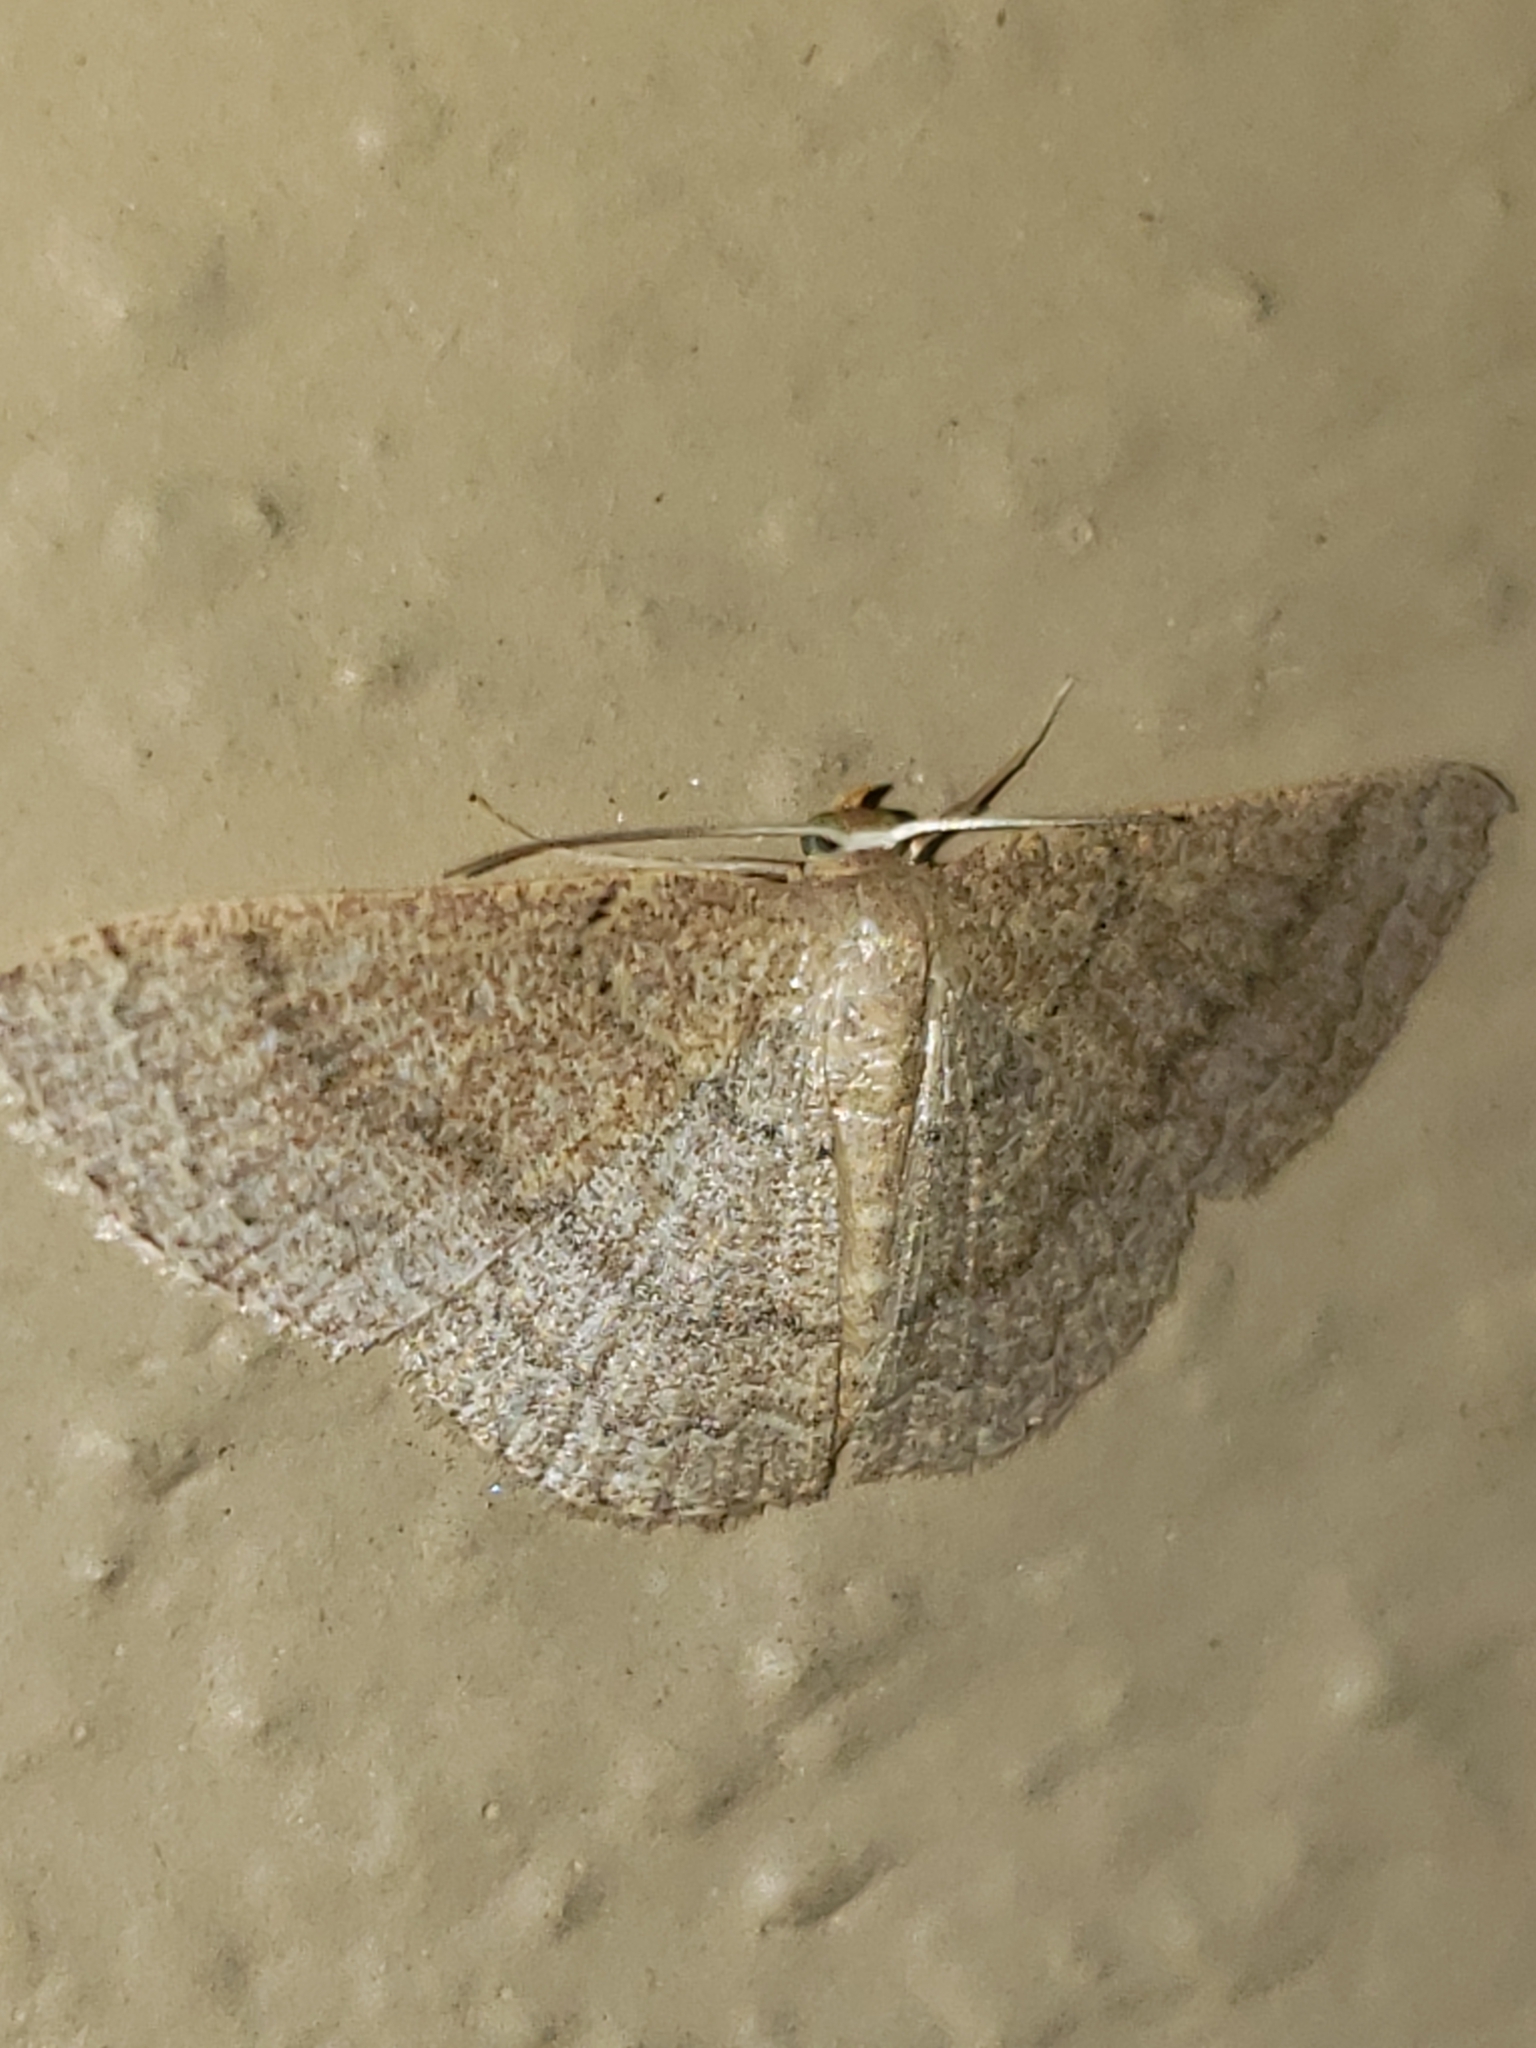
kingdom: Animalia
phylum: Arthropoda
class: Insecta
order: Lepidoptera
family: Geometridae
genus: Pleuroprucha
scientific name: Pleuroprucha insulsaria
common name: Common tan wave
